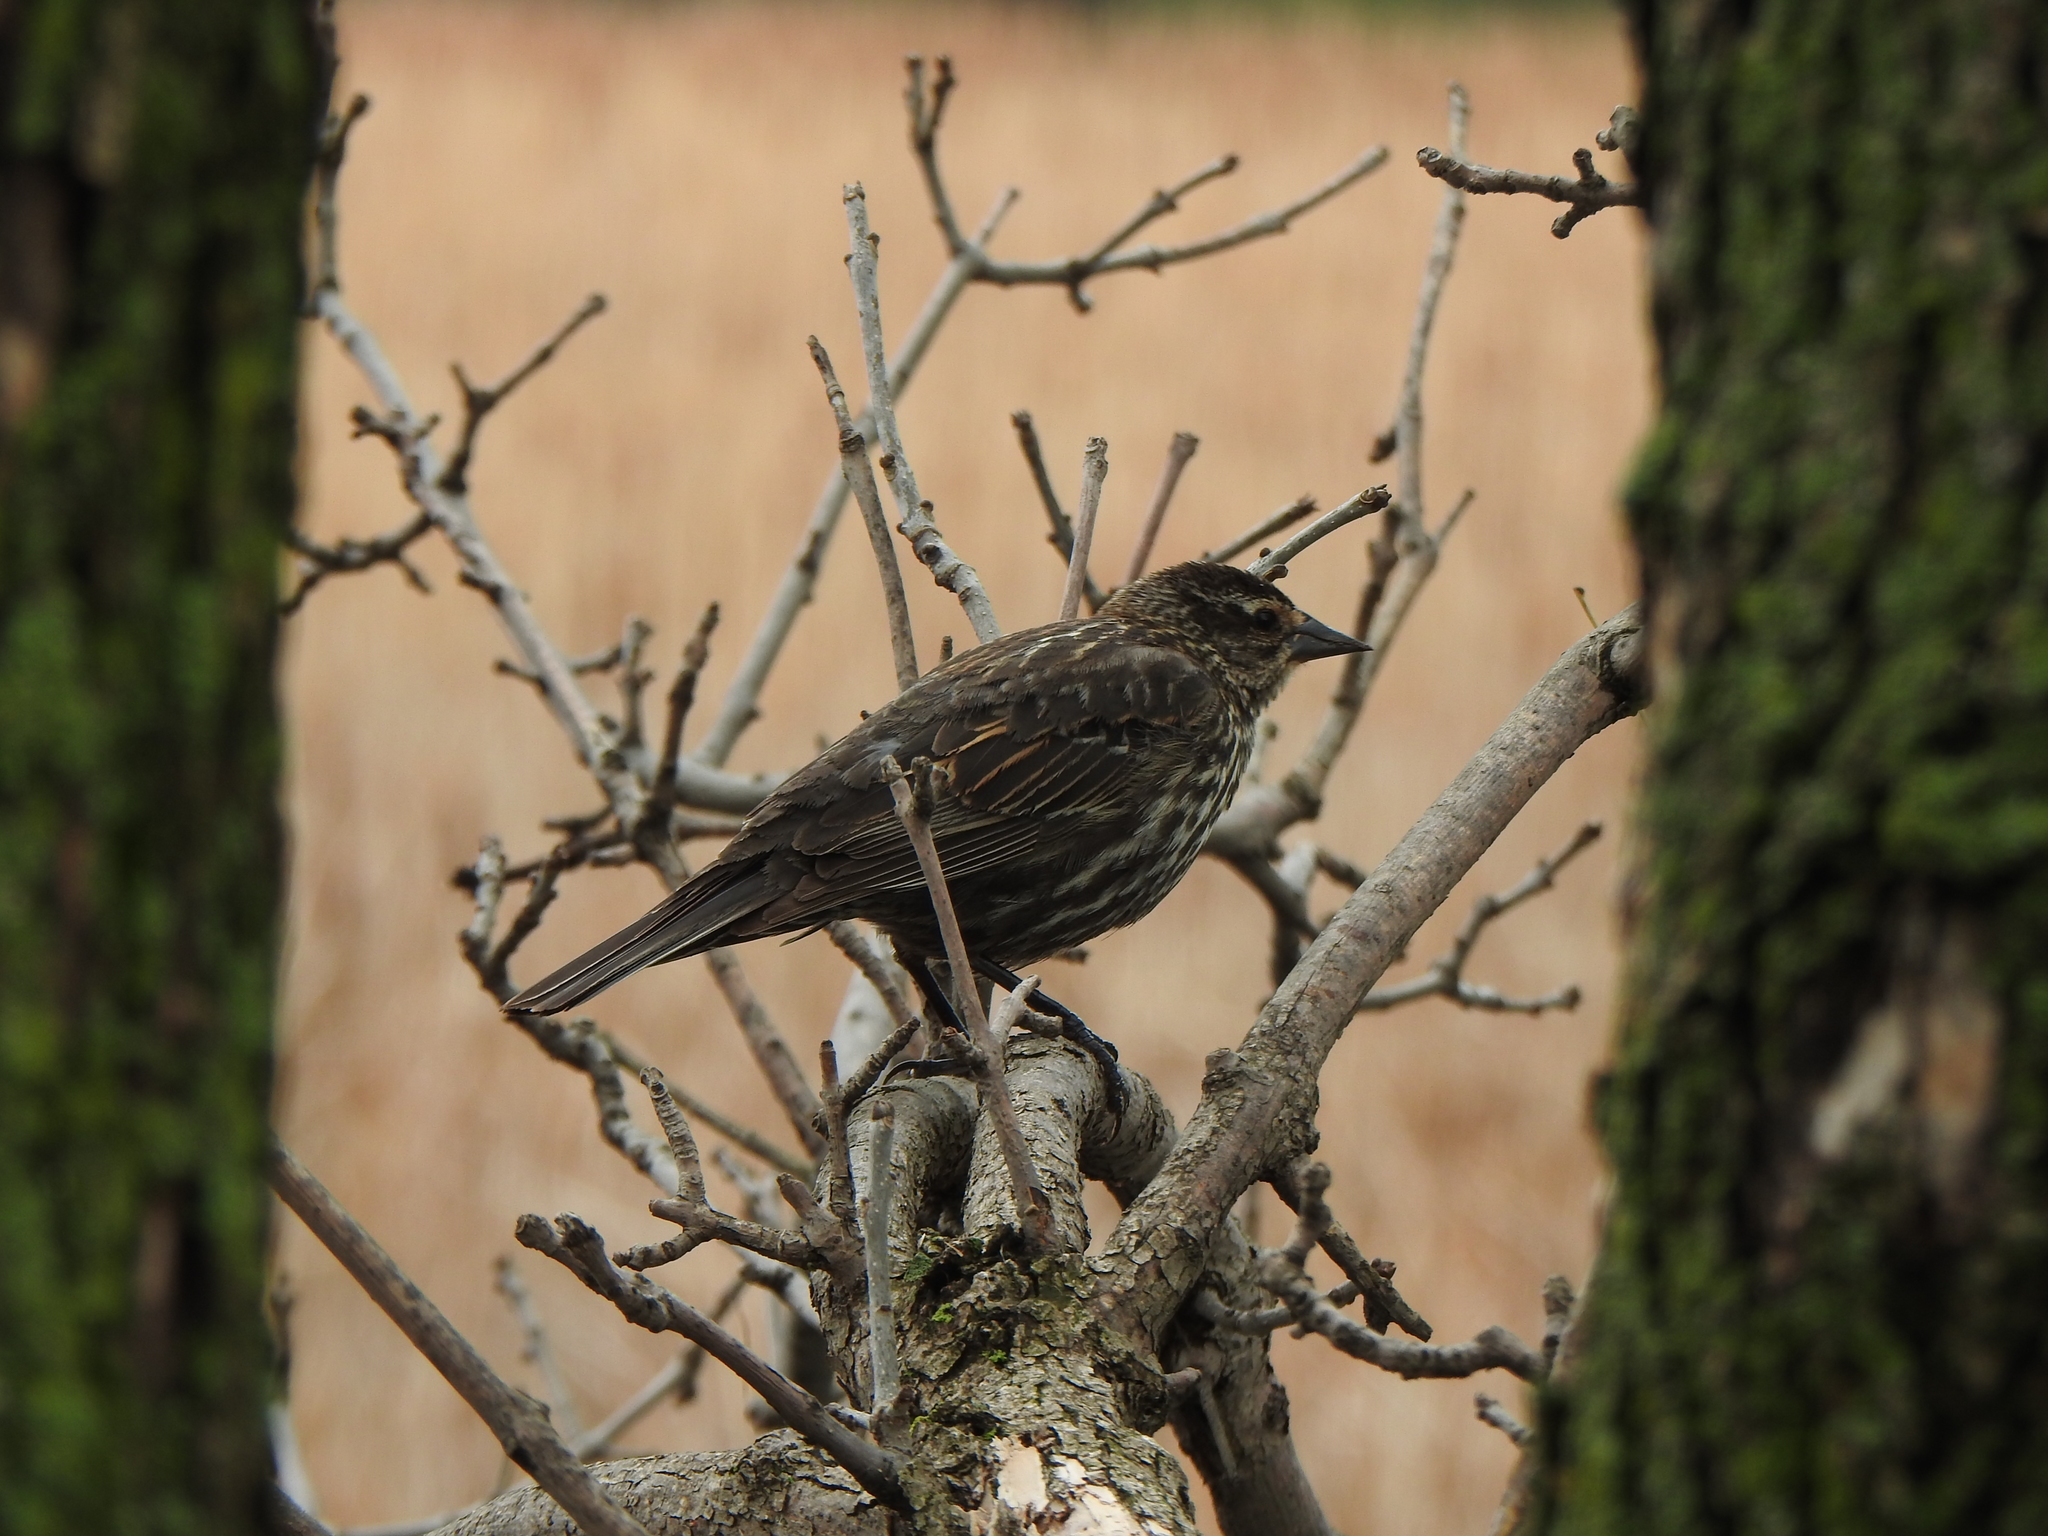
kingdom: Animalia
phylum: Chordata
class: Aves
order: Passeriformes
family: Icteridae
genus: Agelaius
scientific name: Agelaius phoeniceus
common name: Red-winged blackbird
